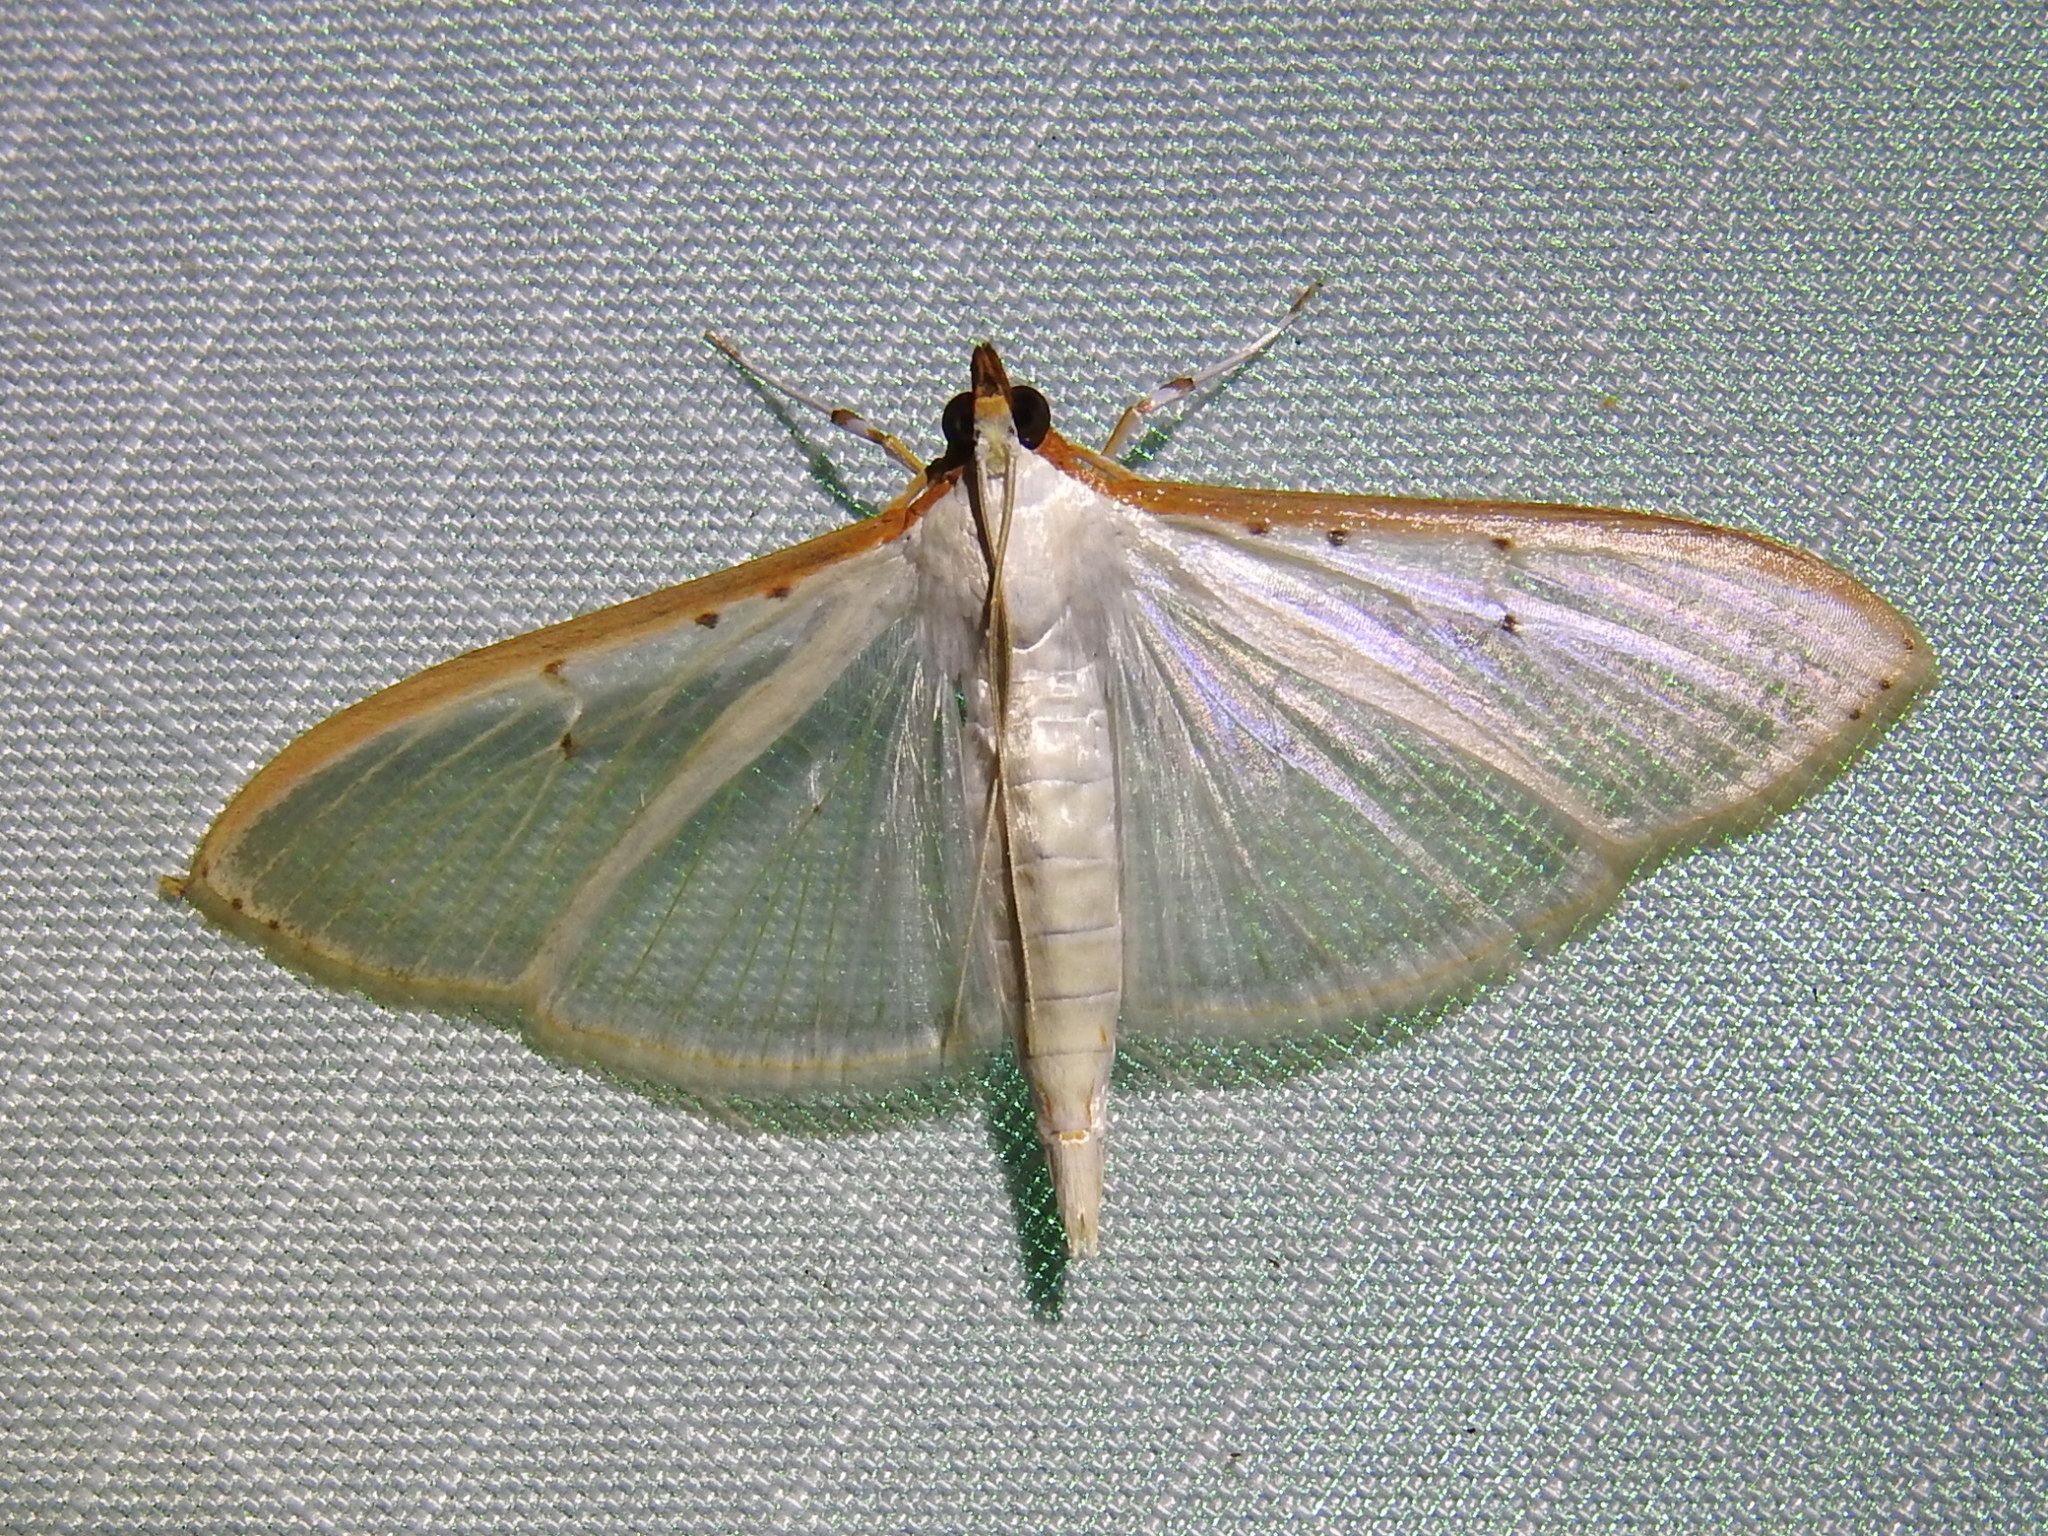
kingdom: Animalia
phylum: Arthropoda
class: Insecta
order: Lepidoptera
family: Crambidae
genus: Palpita
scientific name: Palpita quadristigmalis
